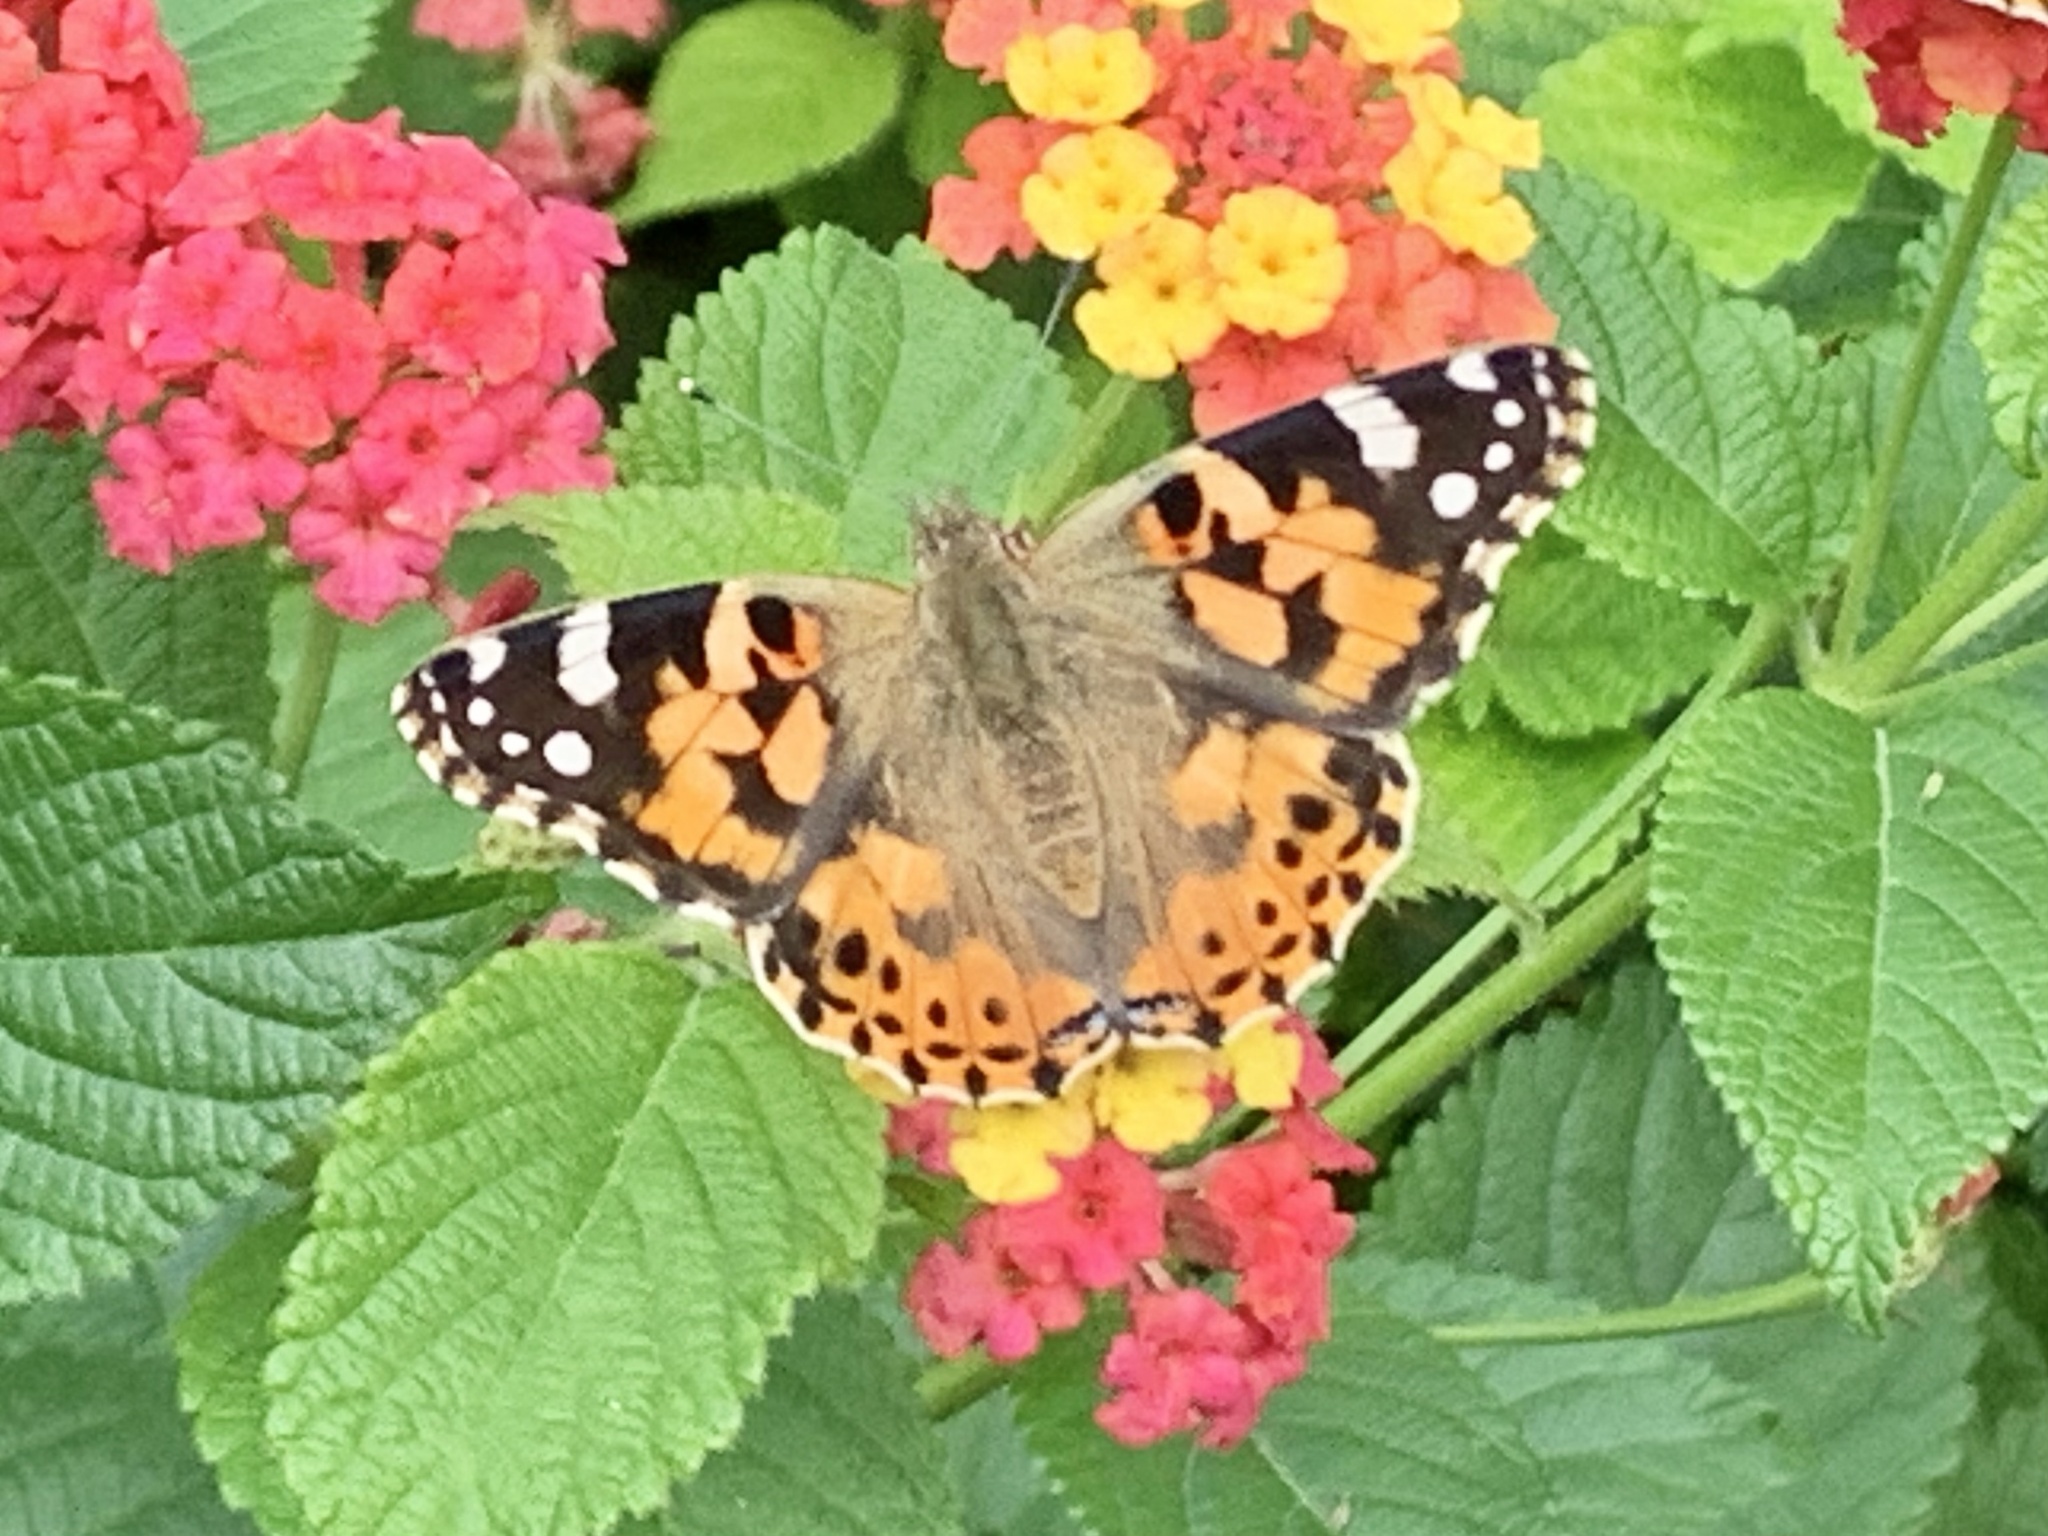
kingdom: Animalia
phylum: Arthropoda
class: Insecta
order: Lepidoptera
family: Nymphalidae
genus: Vanessa
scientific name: Vanessa cardui
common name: Painted lady
